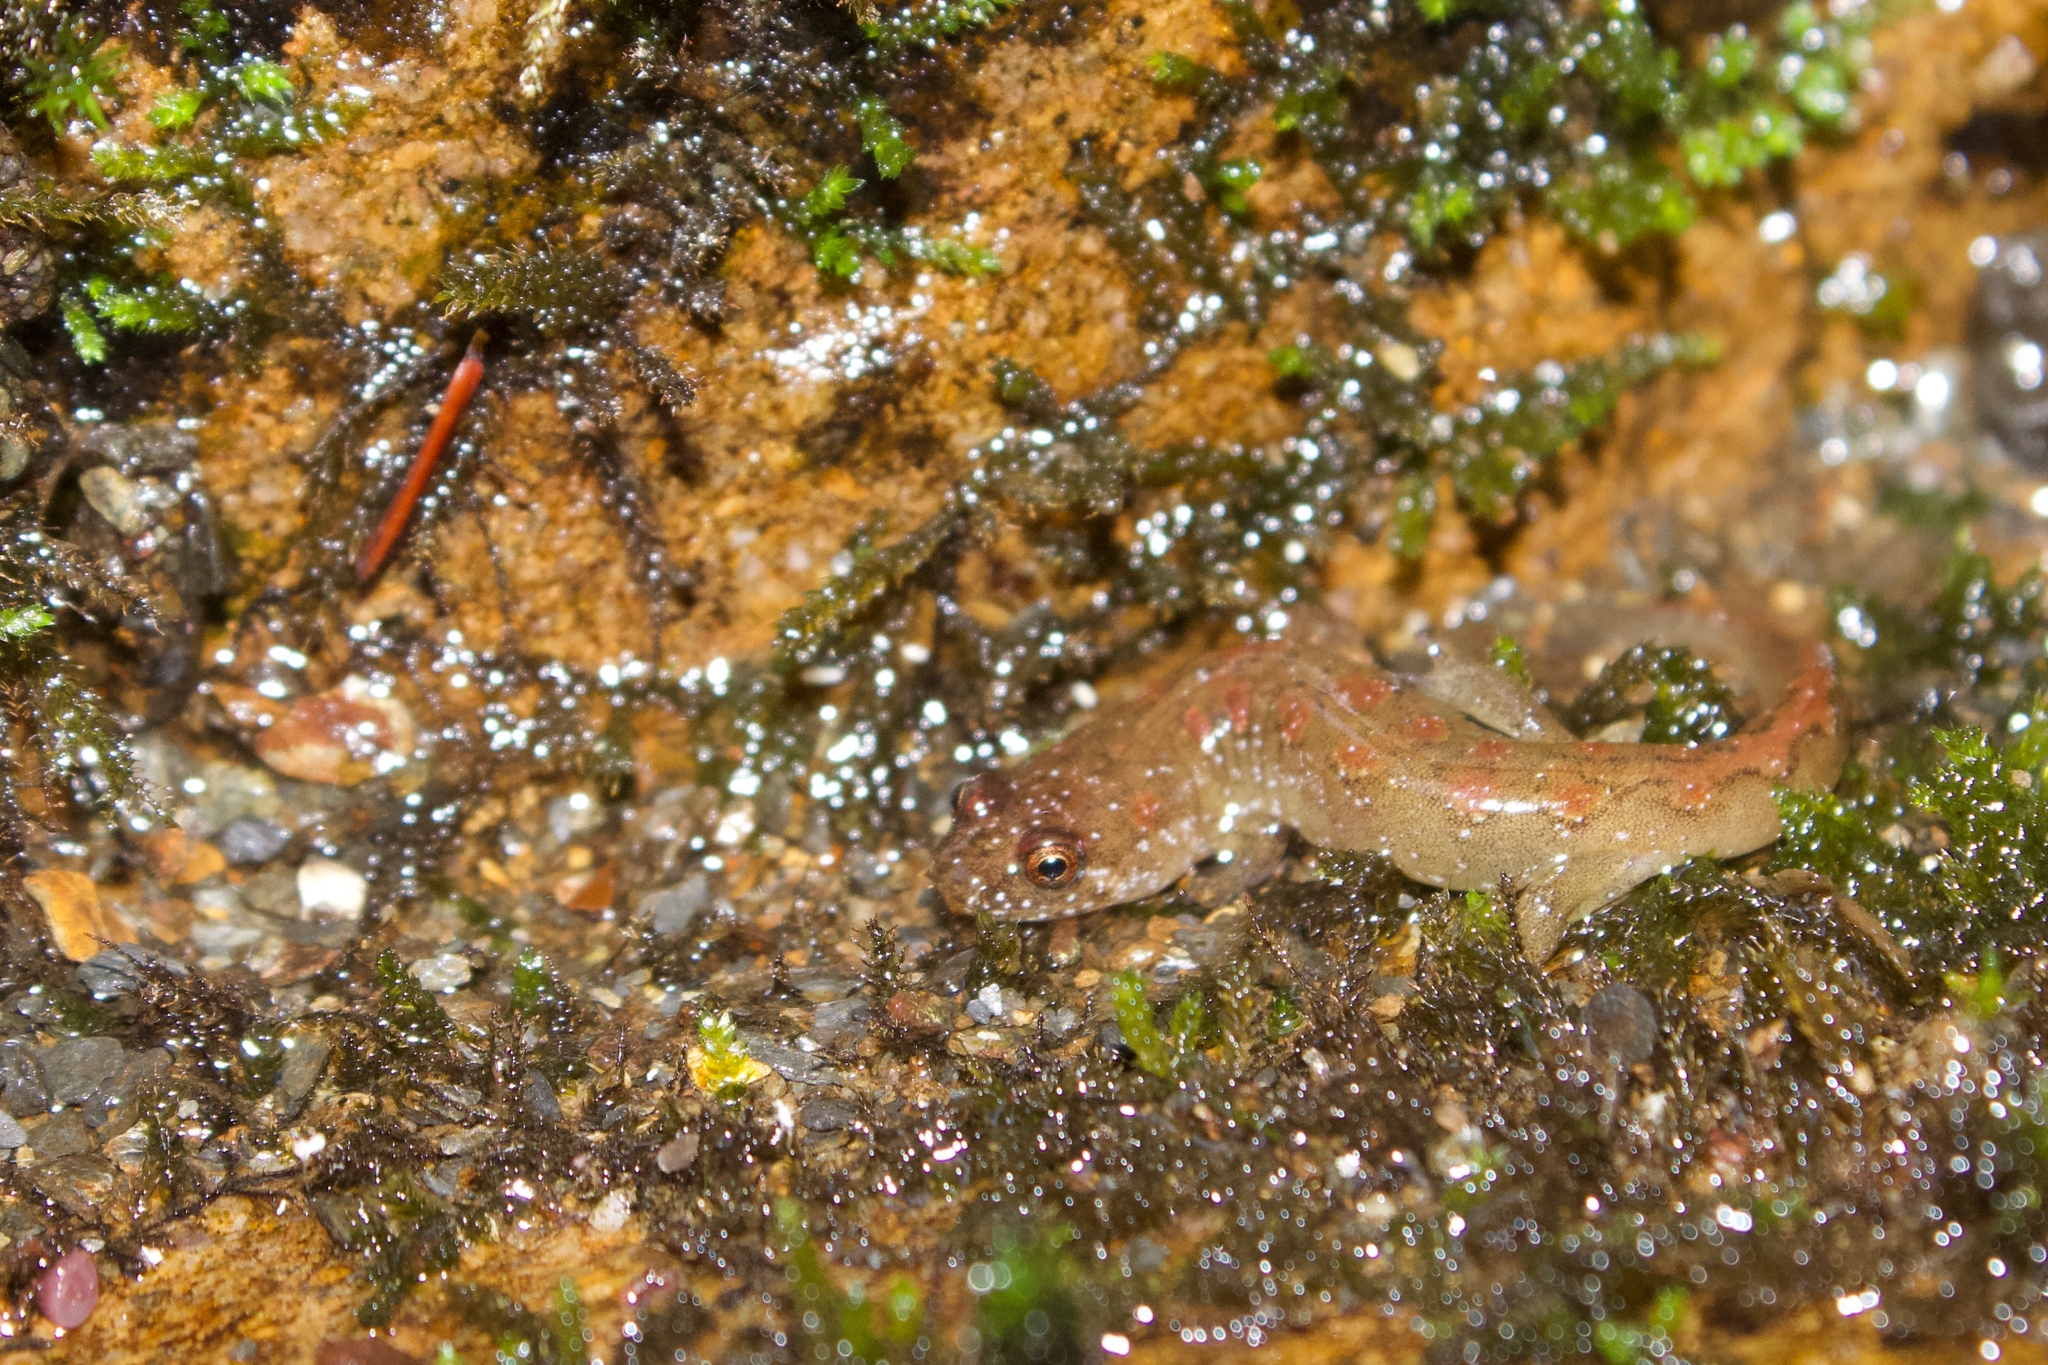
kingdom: Animalia
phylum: Chordata
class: Amphibia
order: Caudata
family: Plethodontidae
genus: Desmognathus
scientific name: Desmognathus santeetlah
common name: Santeetlah dusky salamander
